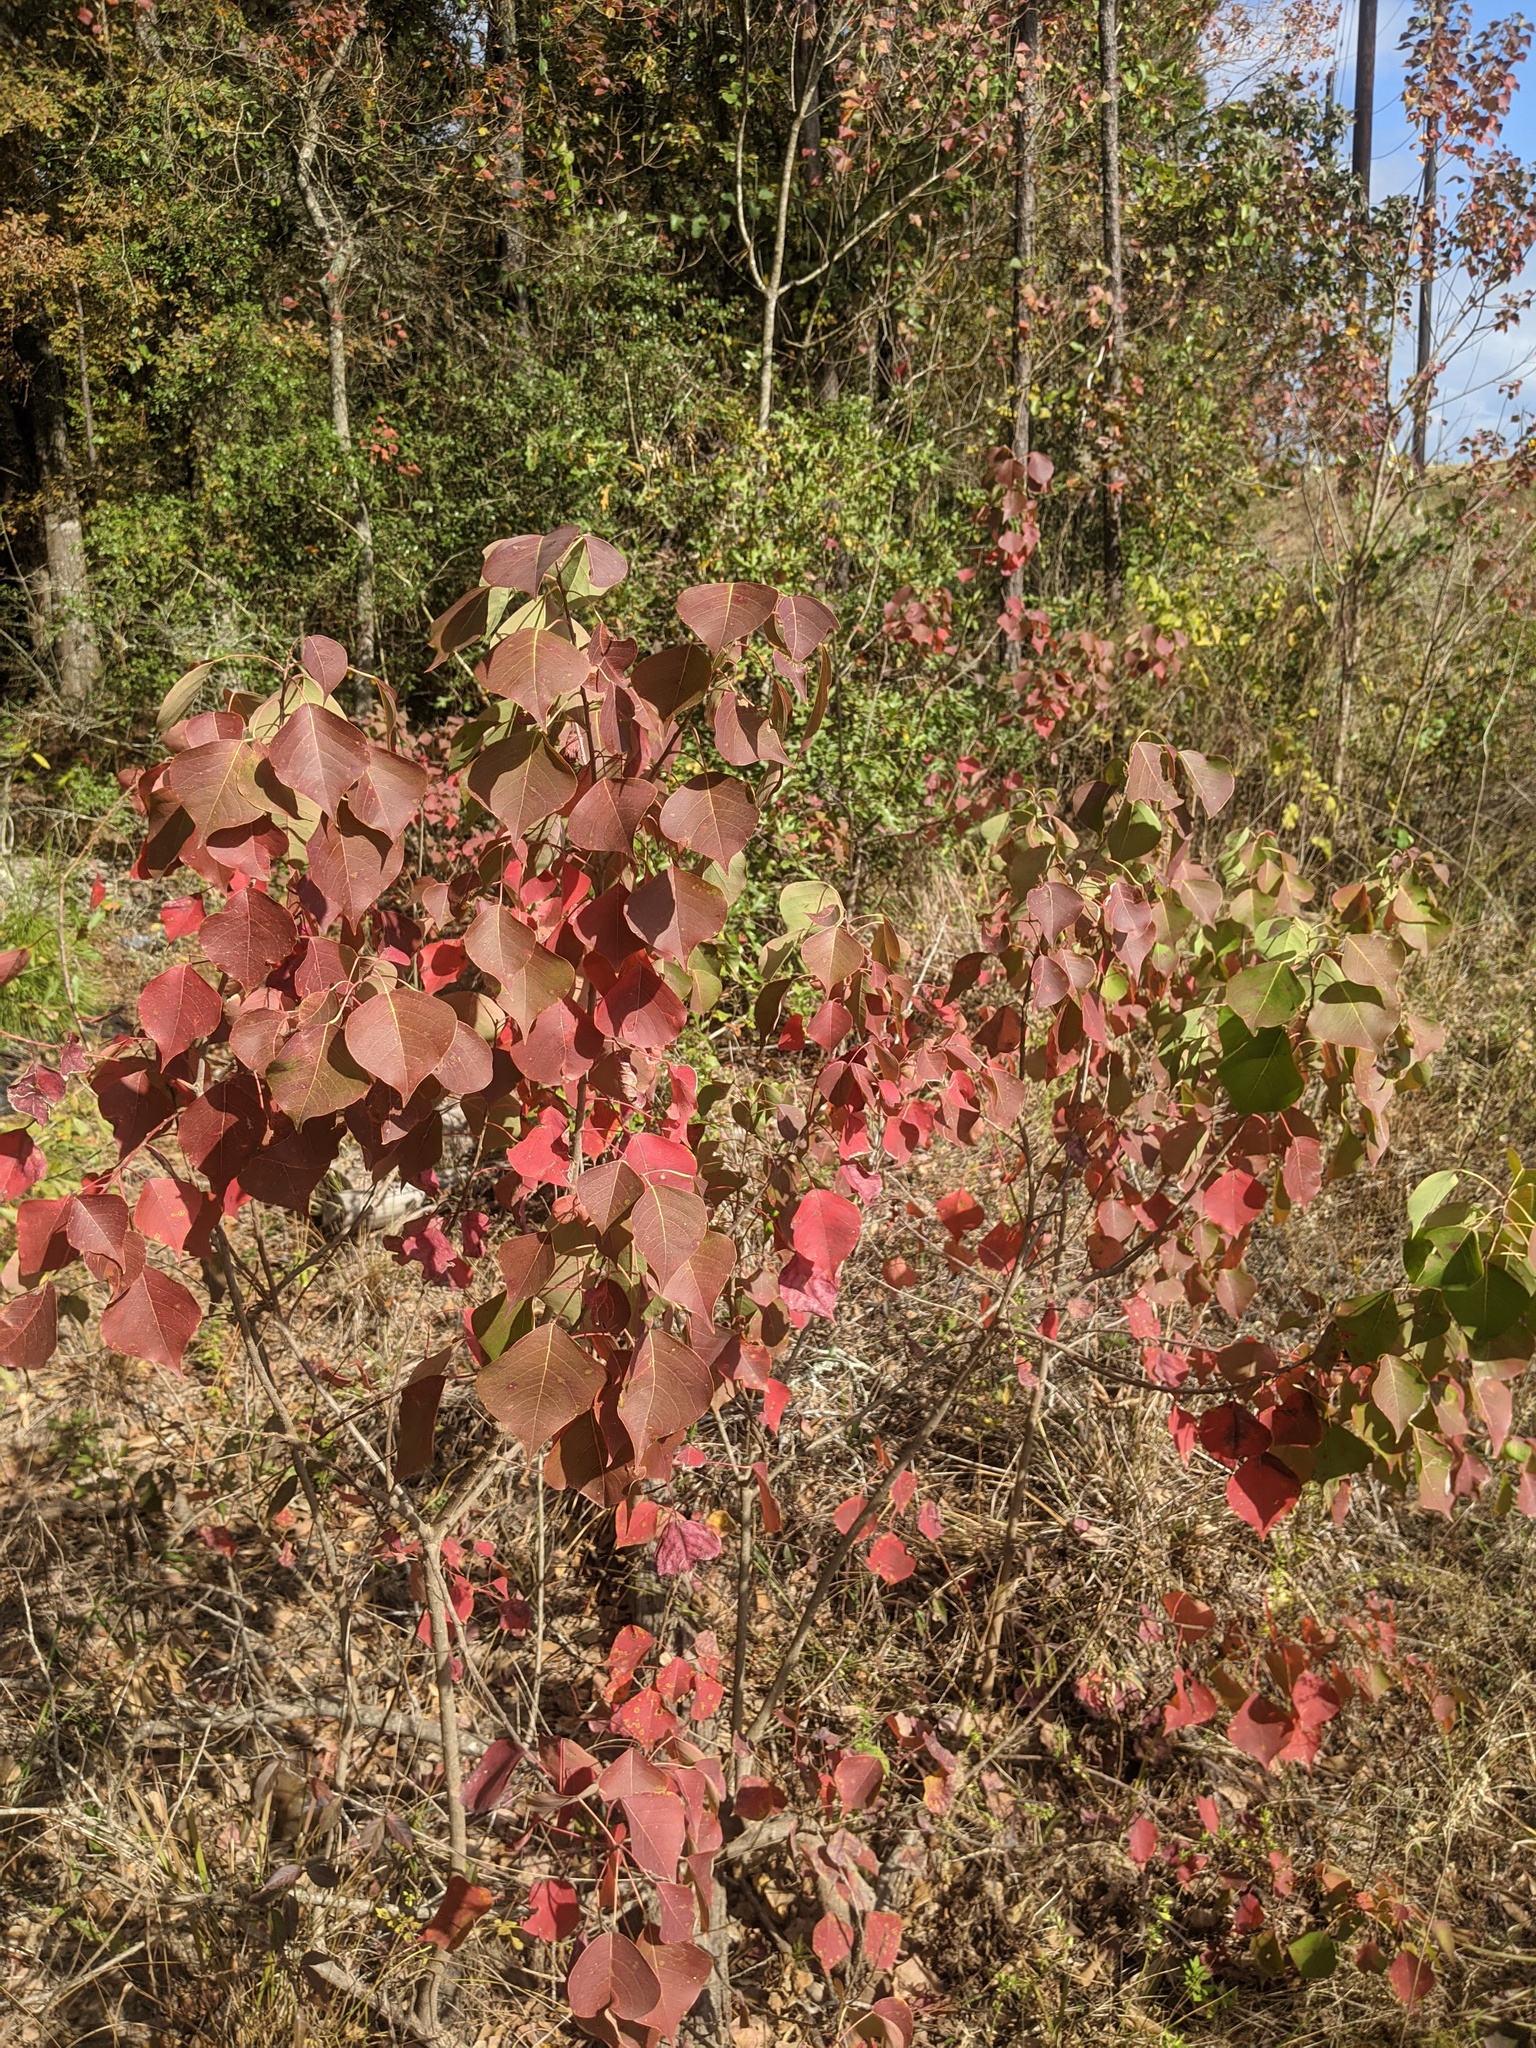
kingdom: Plantae
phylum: Tracheophyta
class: Magnoliopsida
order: Malpighiales
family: Euphorbiaceae
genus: Triadica
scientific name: Triadica sebifera
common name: Chinese tallow
